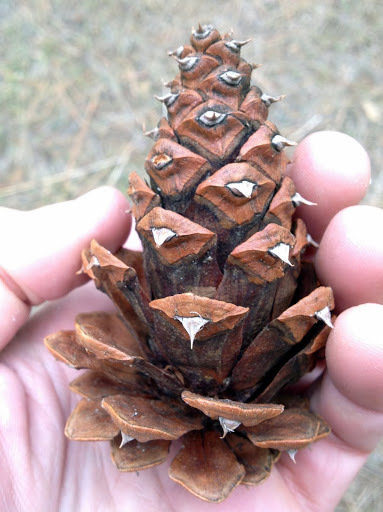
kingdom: Plantae
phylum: Tracheophyta
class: Pinopsida
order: Pinales
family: Pinaceae
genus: Pinus
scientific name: Pinus ponderosa
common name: Western yellow-pine
